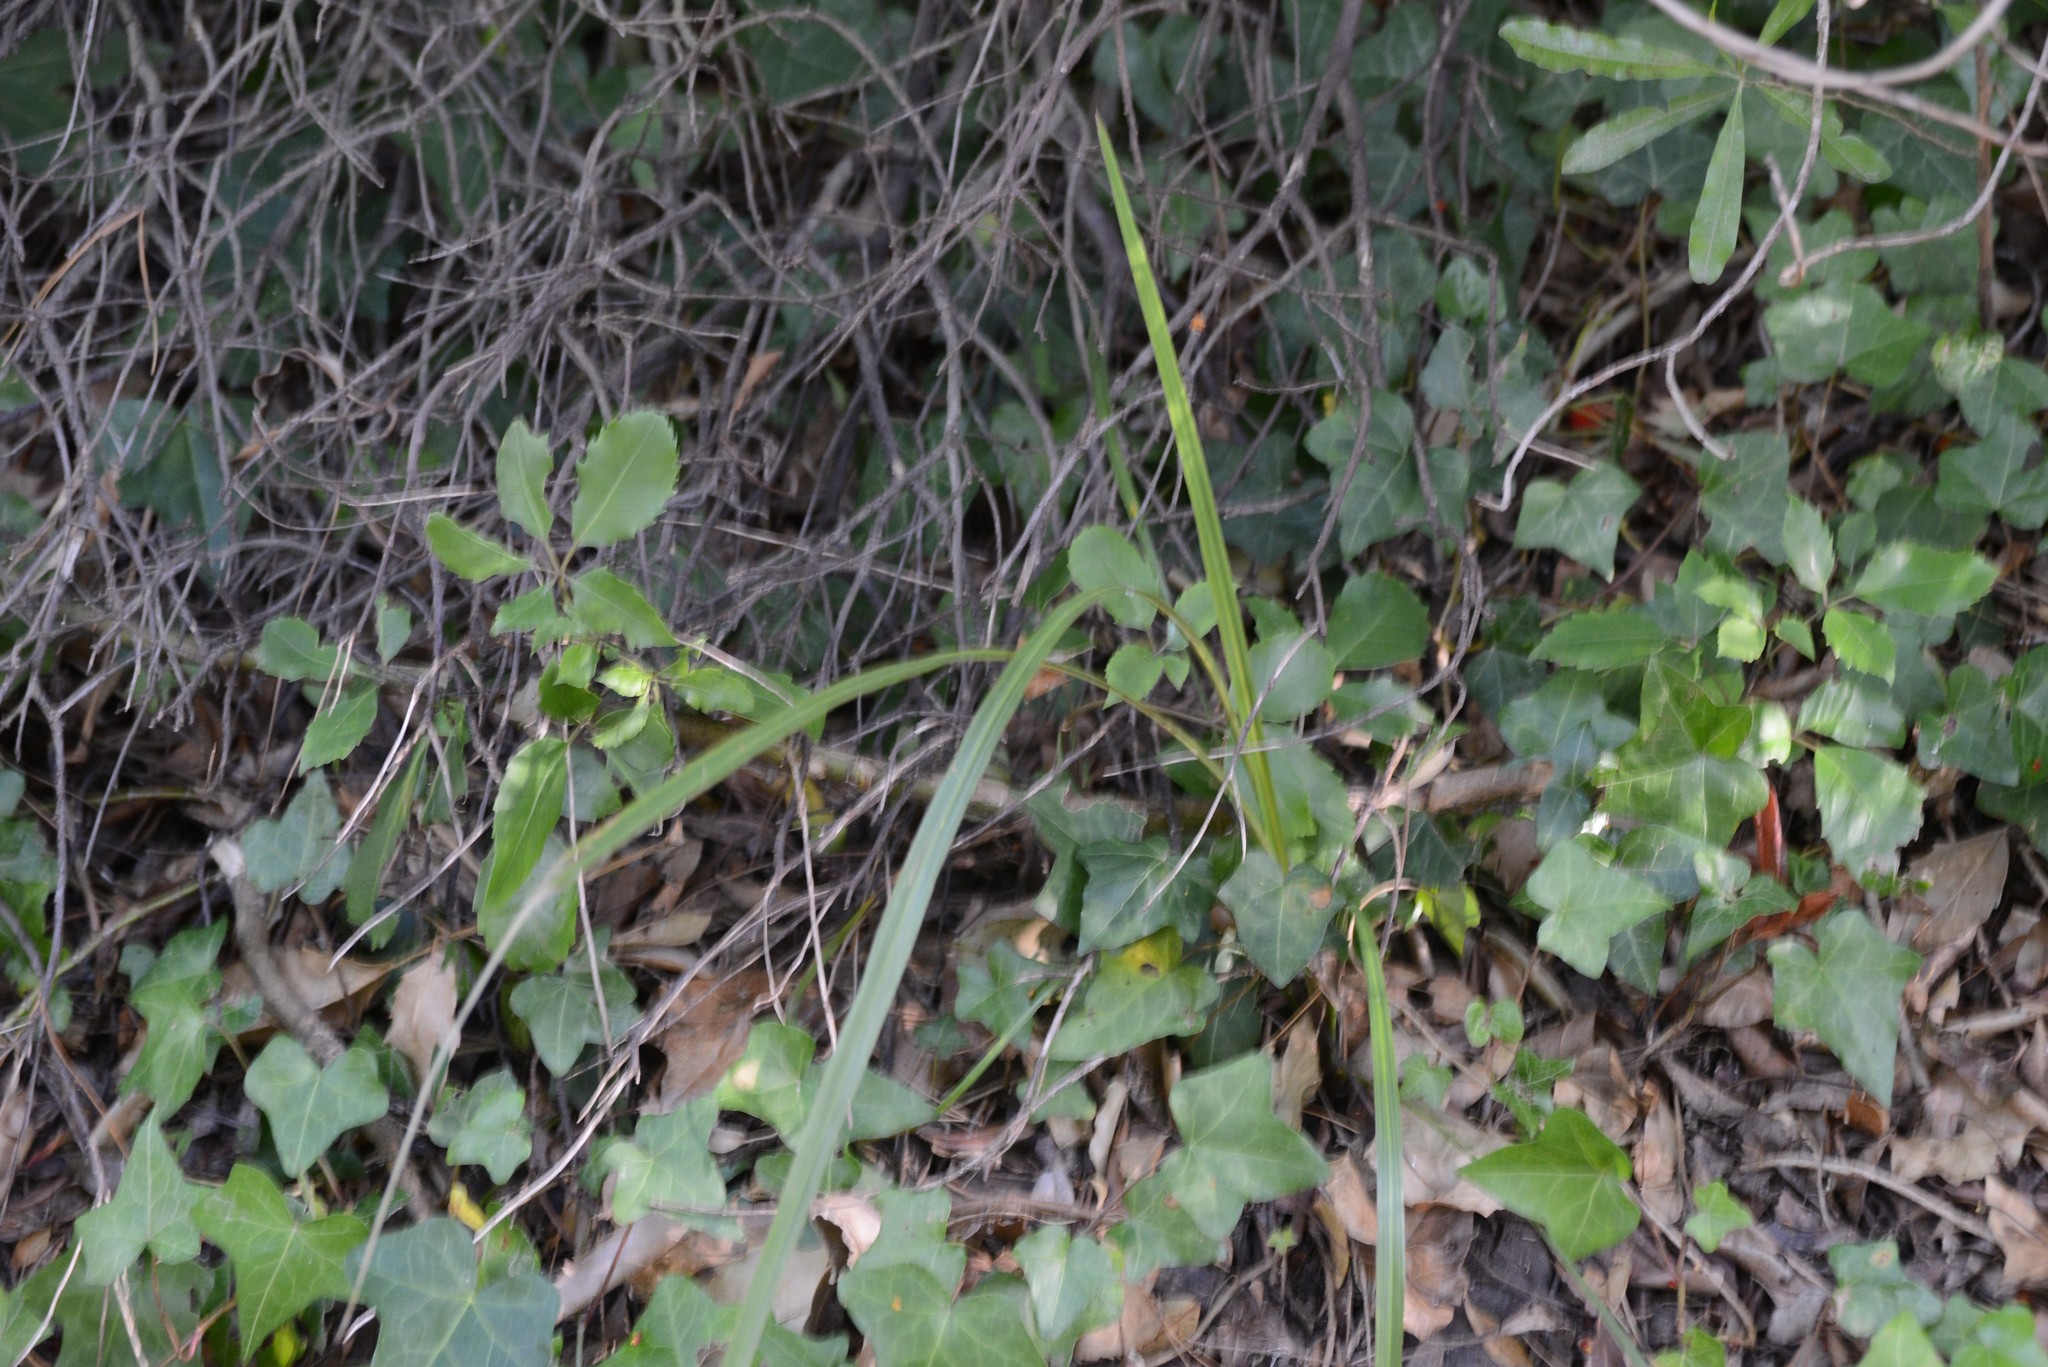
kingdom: Plantae
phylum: Tracheophyta
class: Liliopsida
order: Asparagales
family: Asparagaceae
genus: Cordyline
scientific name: Cordyline australis
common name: Cabbage-palm
